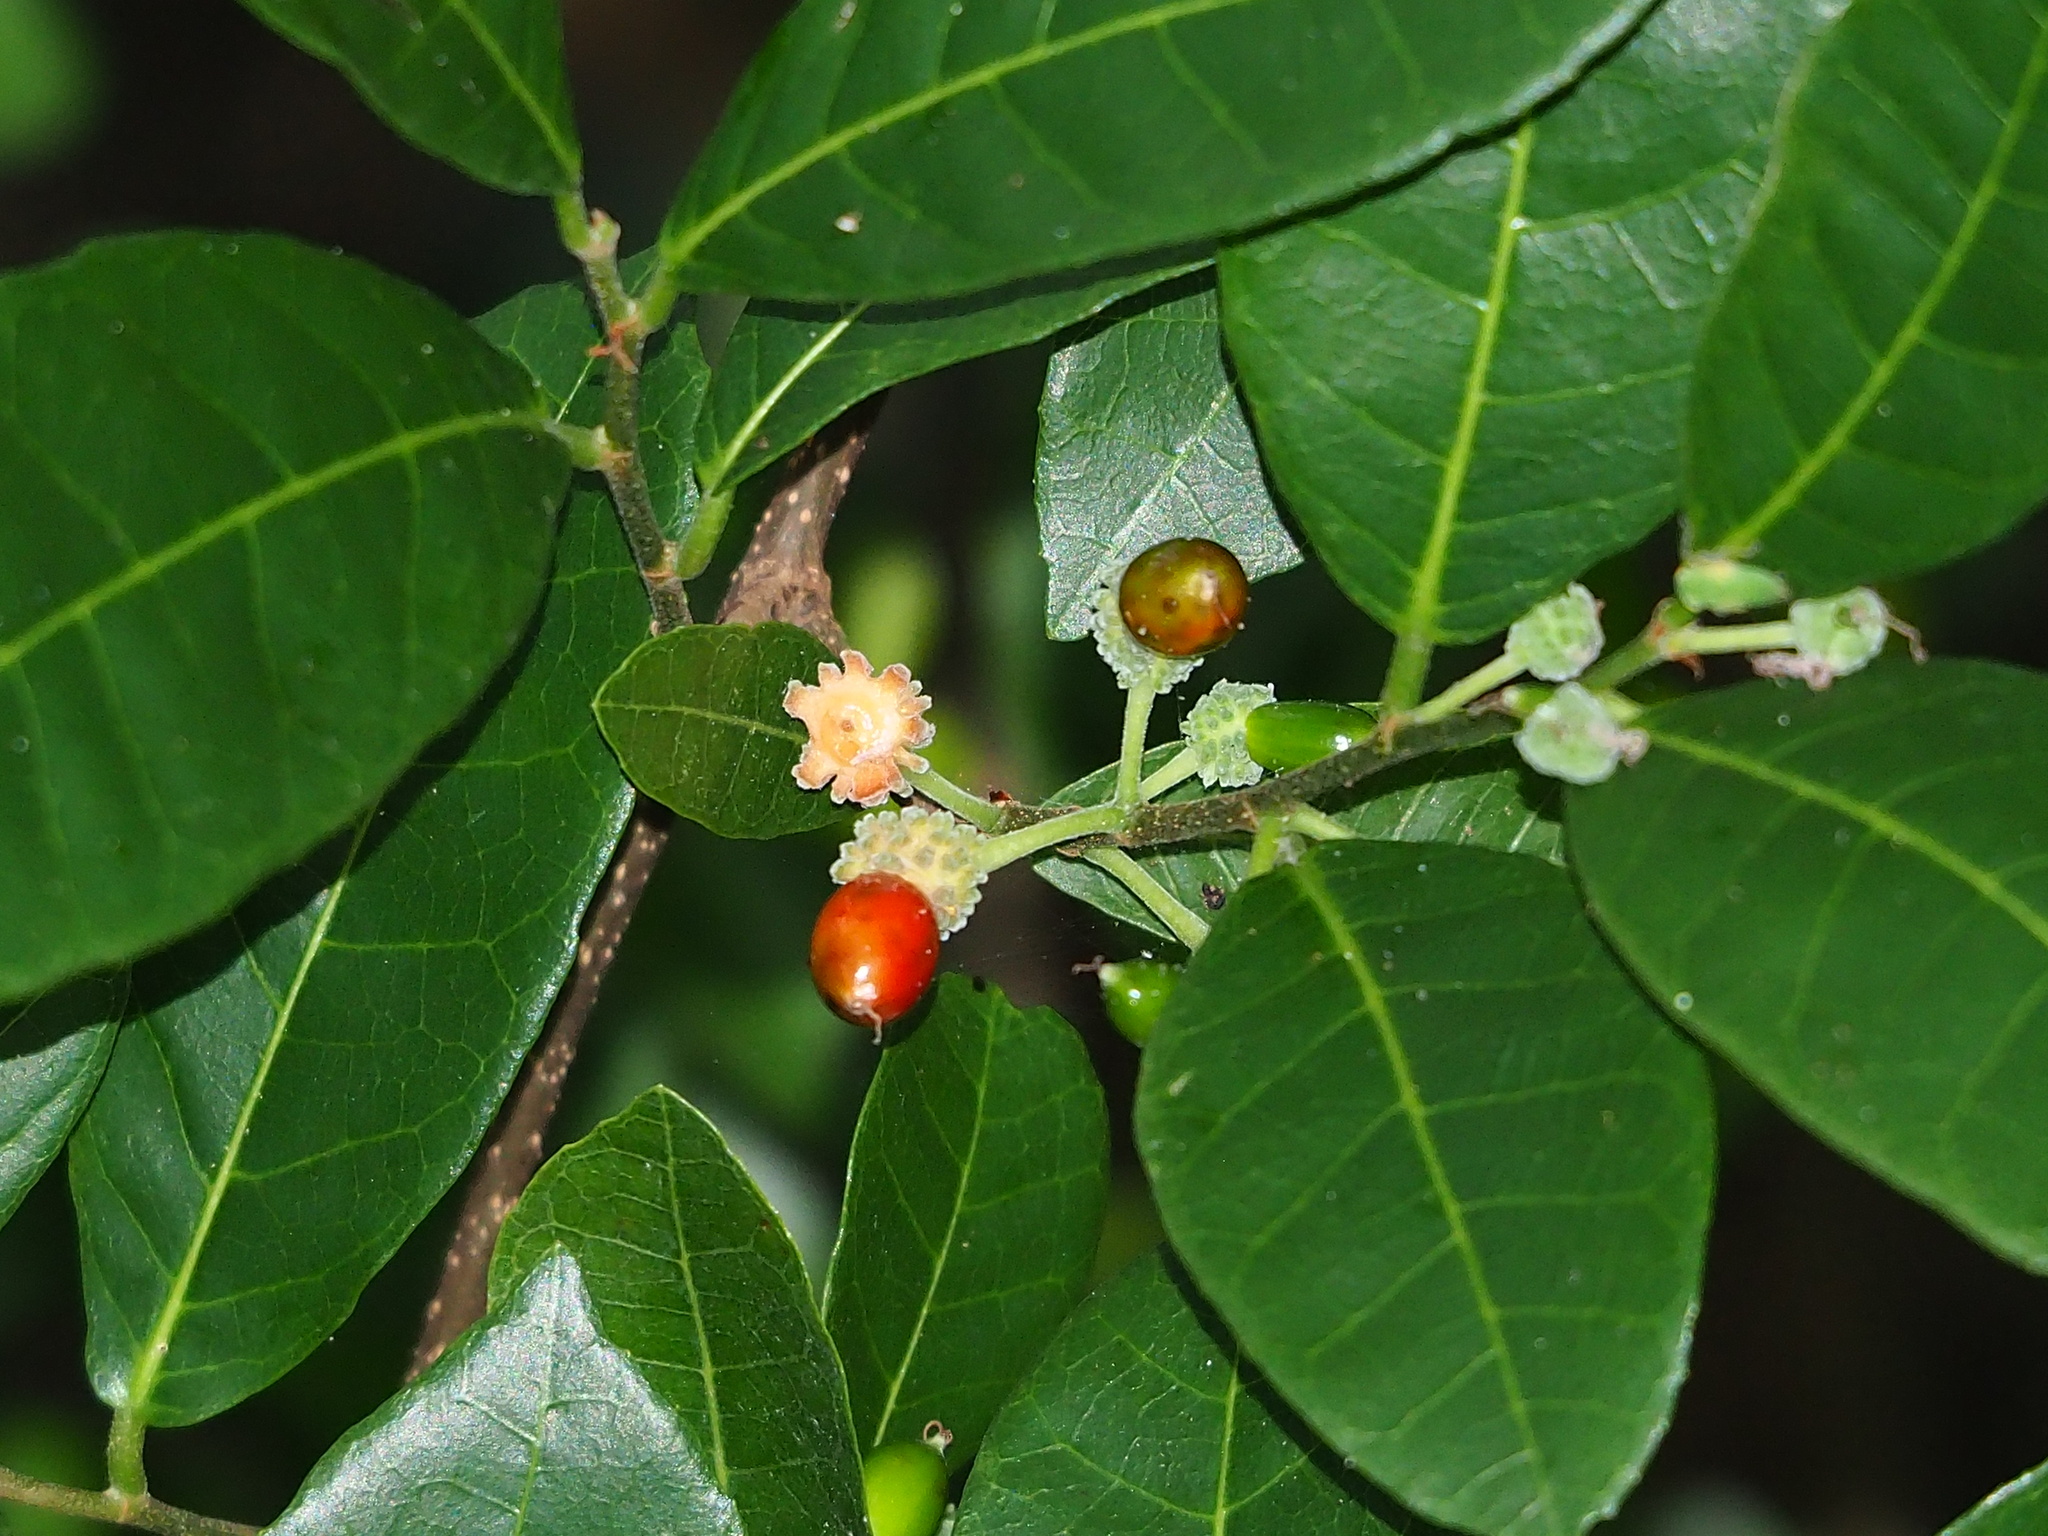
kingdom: Plantae
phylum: Tracheophyta
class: Magnoliopsida
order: Rosales
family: Moraceae
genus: Malaisia
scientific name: Malaisia scandens
